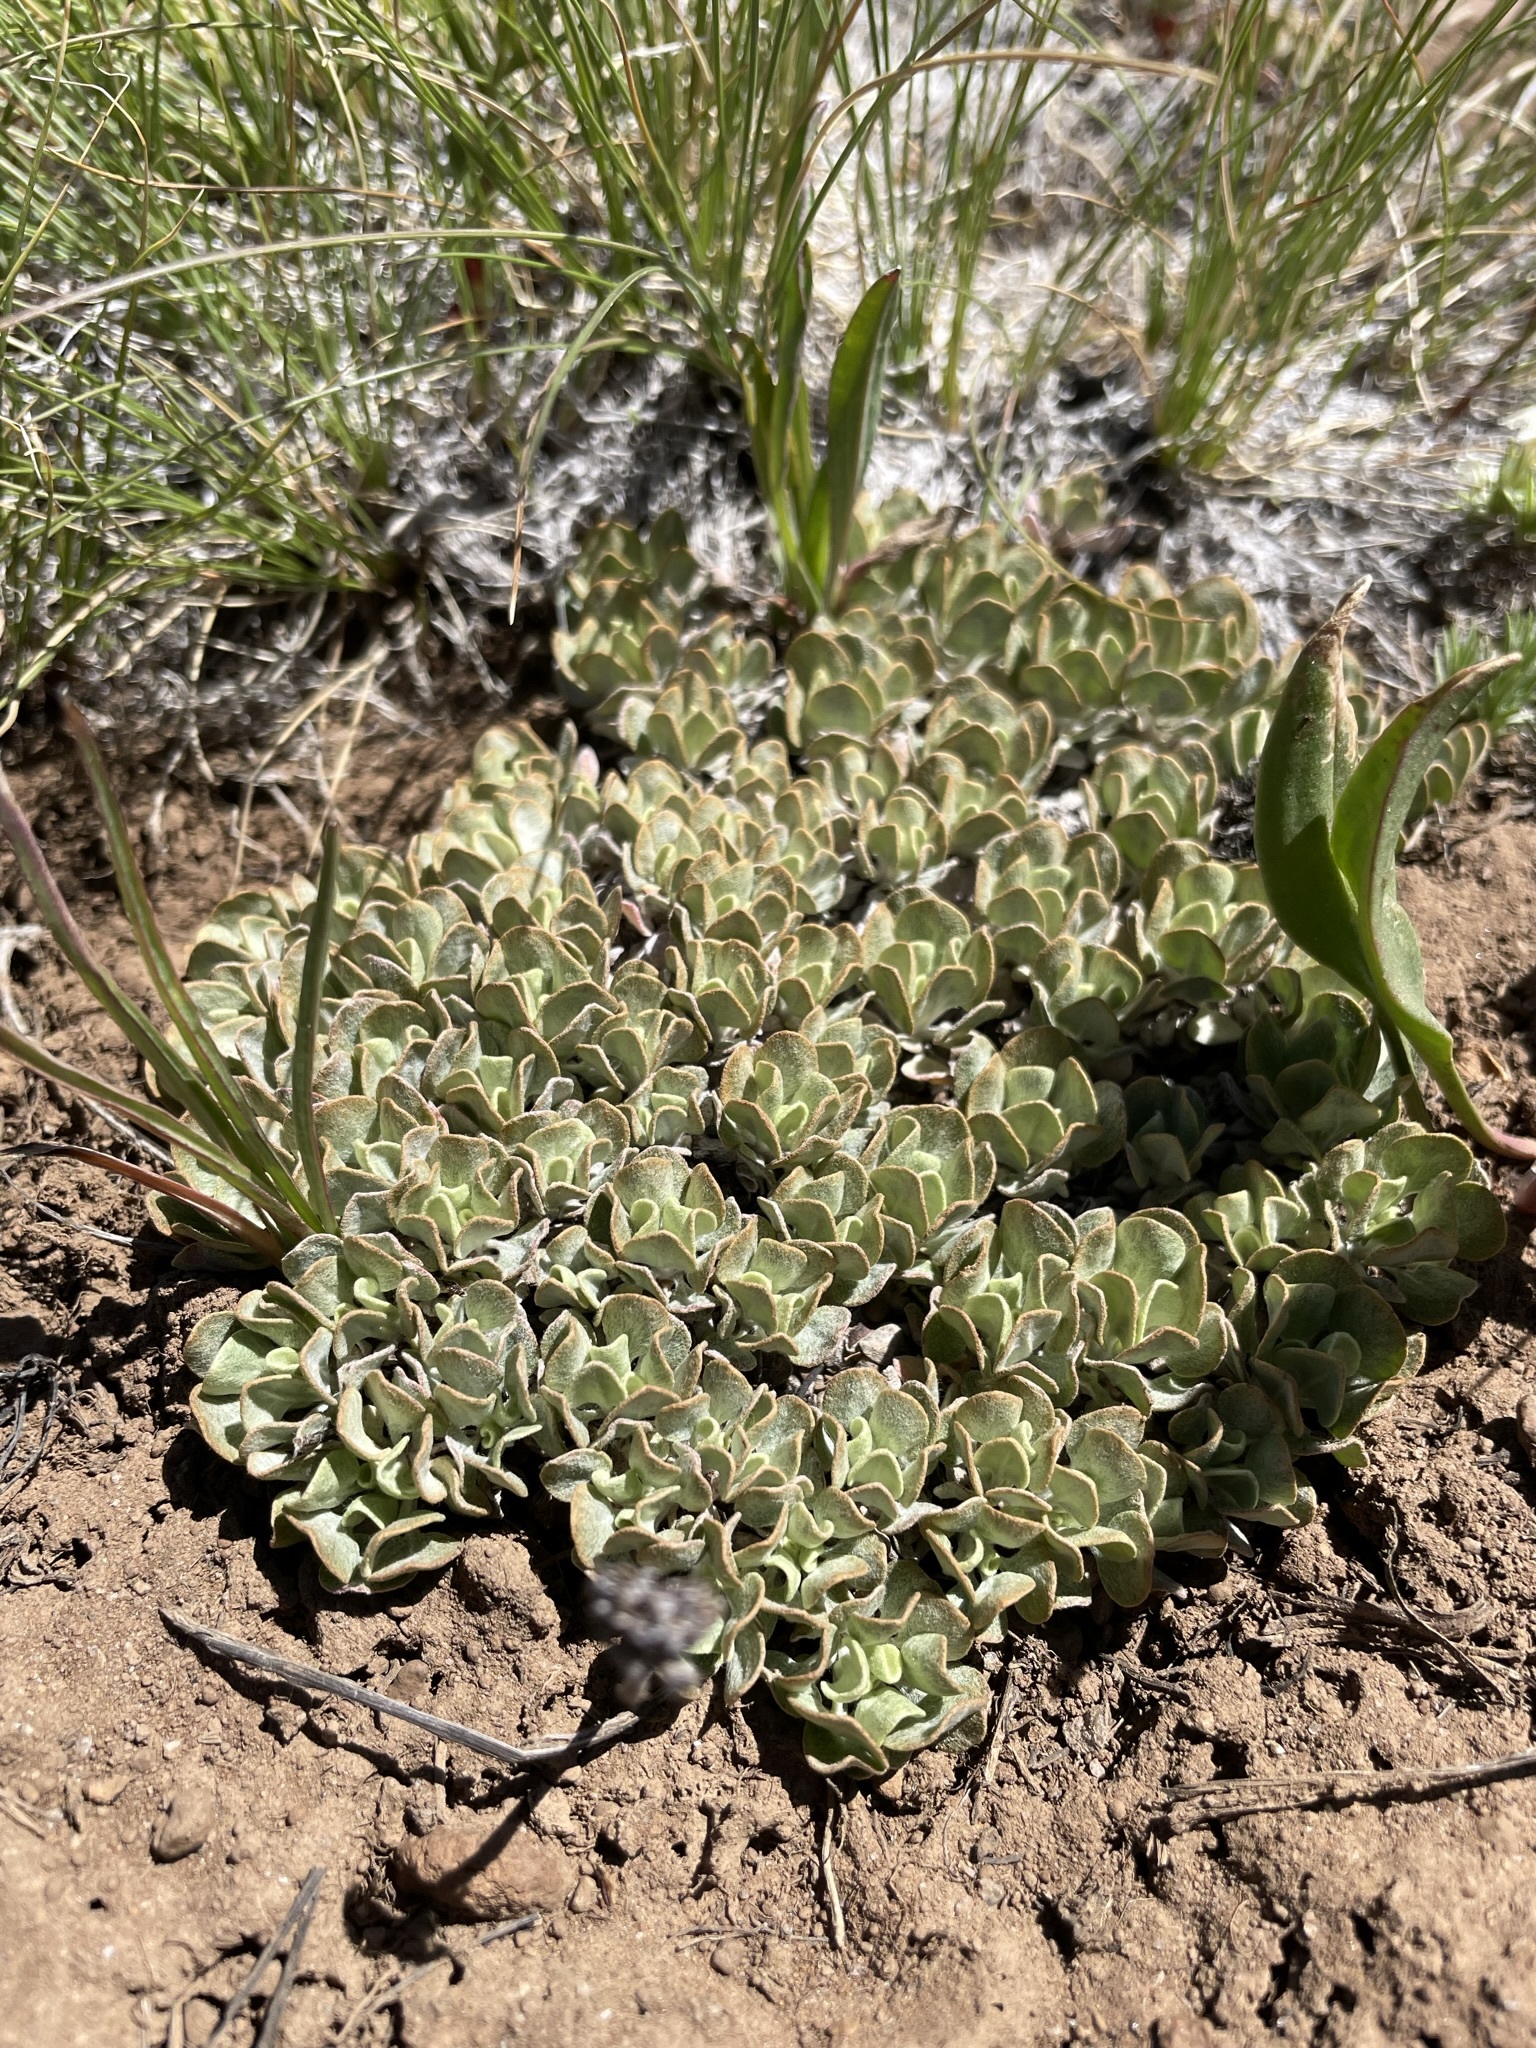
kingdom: Plantae
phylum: Tracheophyta
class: Magnoliopsida
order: Caryophyllales
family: Polygonaceae
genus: Eriogonum
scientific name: Eriogonum ovalifolium
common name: Cushion buckwheat
